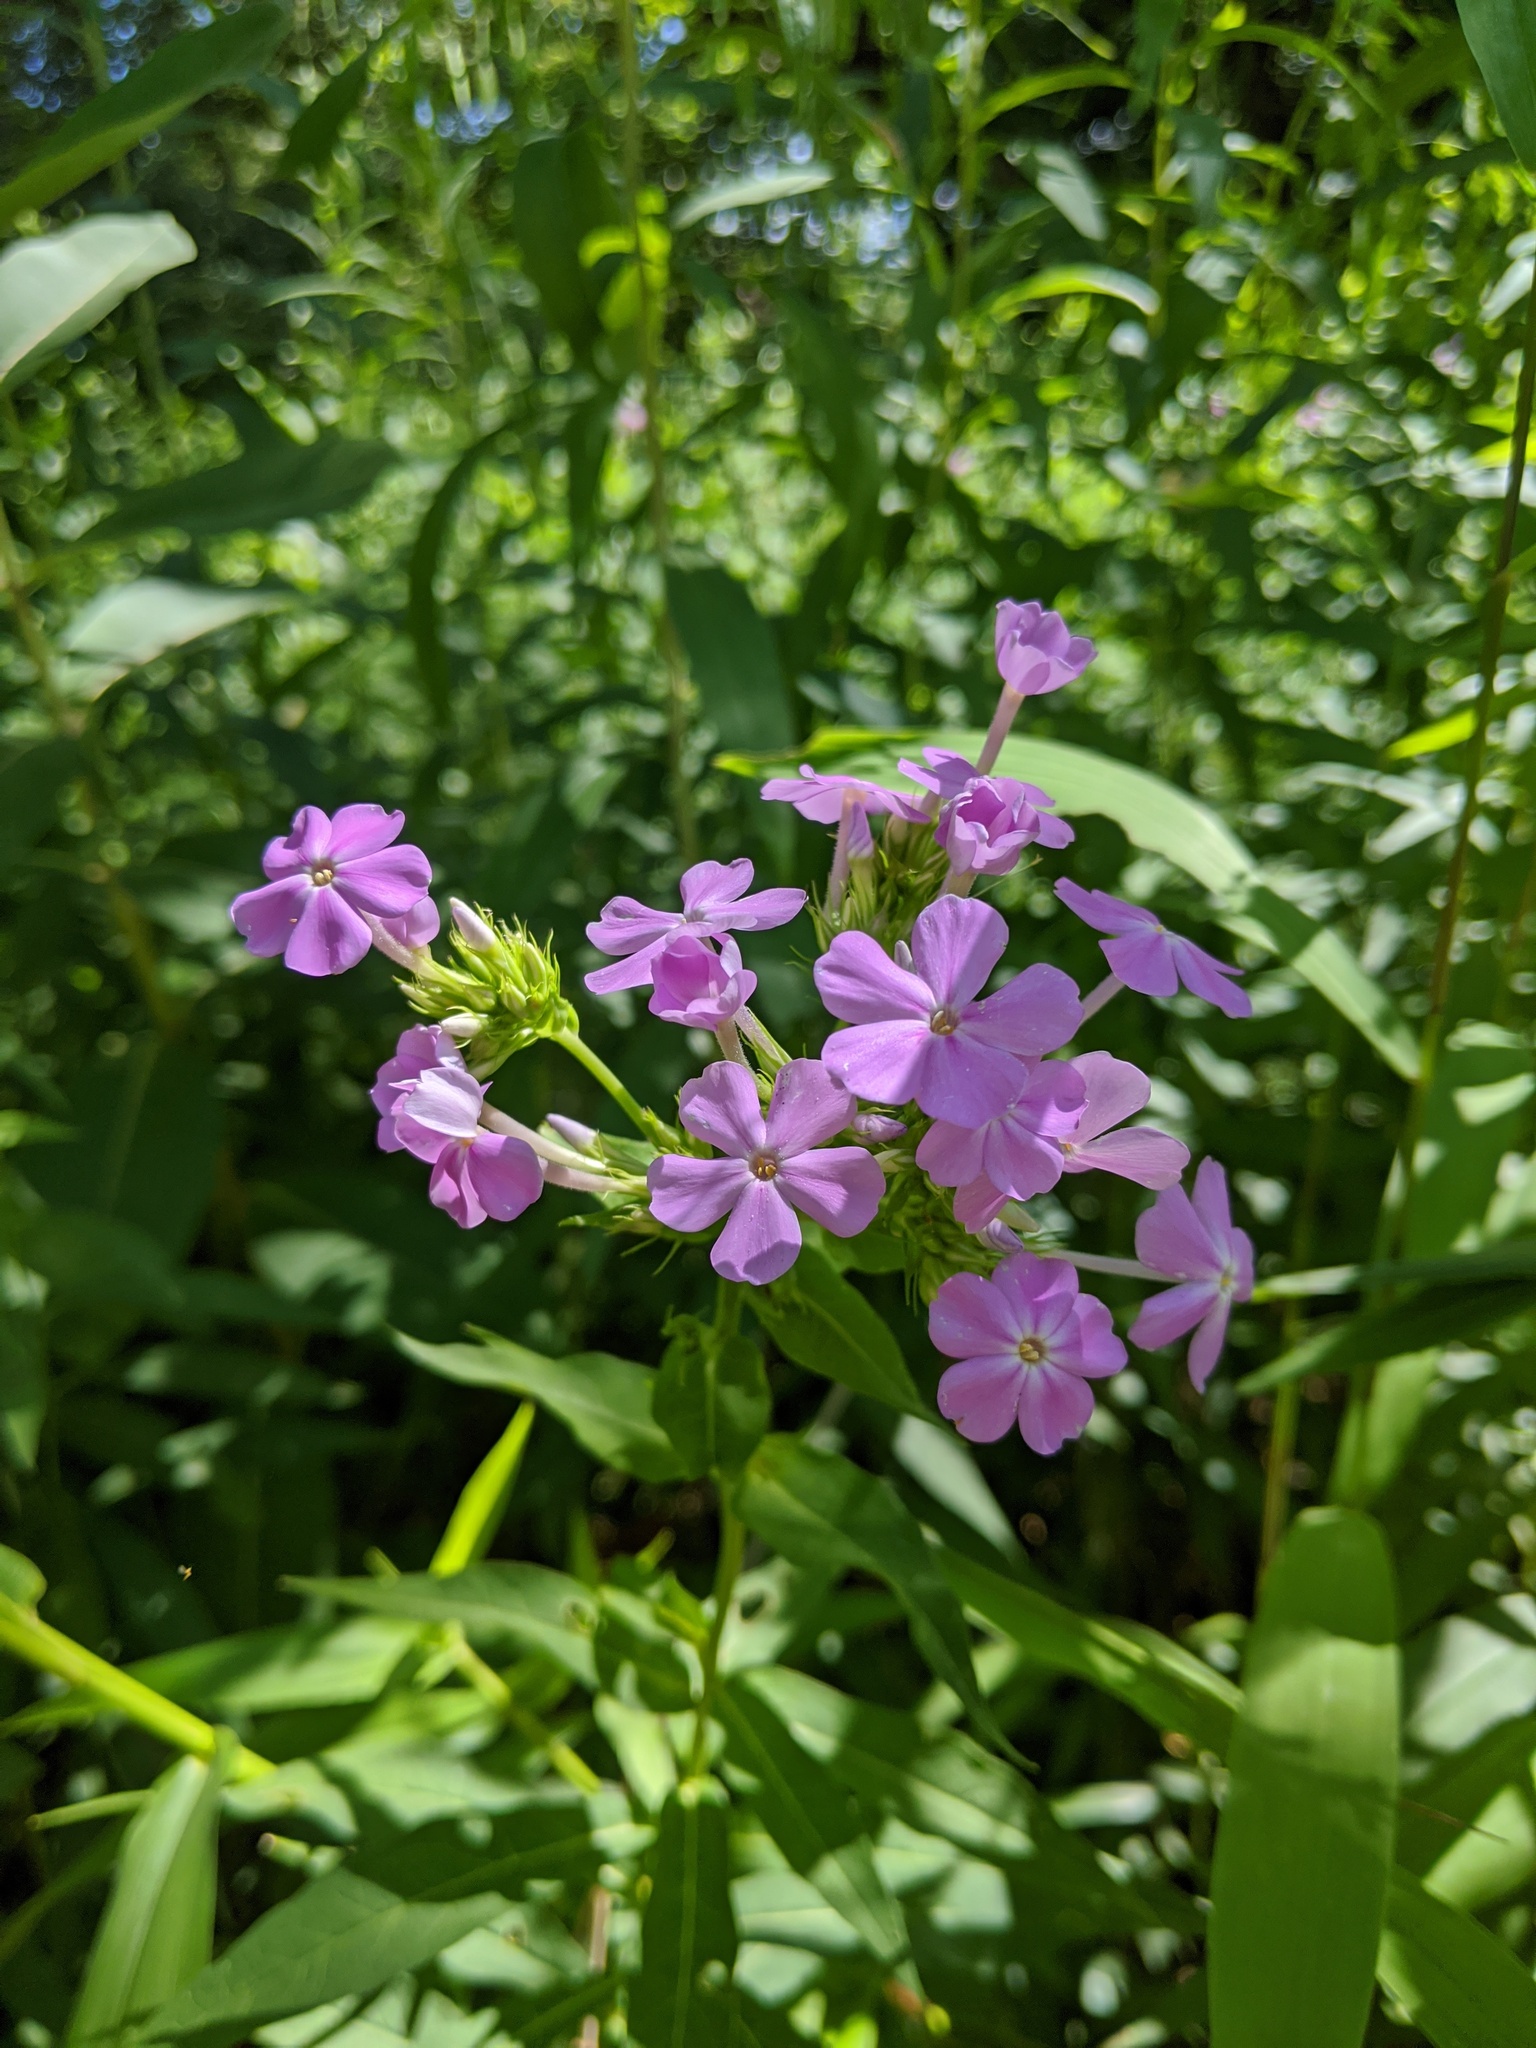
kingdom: Plantae
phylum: Tracheophyta
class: Magnoliopsida
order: Ericales
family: Polemoniaceae
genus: Phlox
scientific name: Phlox paniculata
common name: Fall phlox
